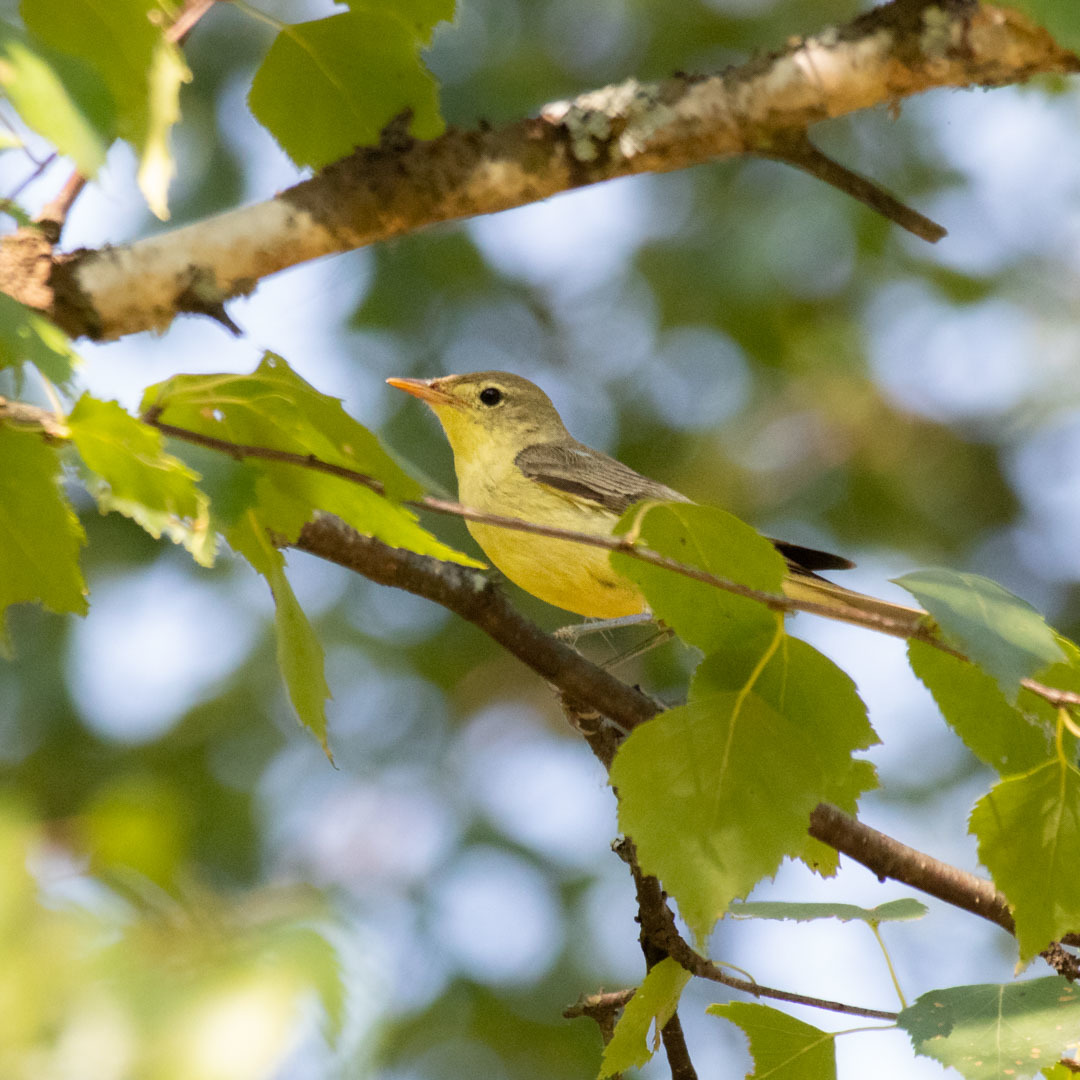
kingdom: Animalia
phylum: Chordata
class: Aves
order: Passeriformes
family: Acrocephalidae
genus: Hippolais
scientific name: Hippolais icterina
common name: Icterine warbler
